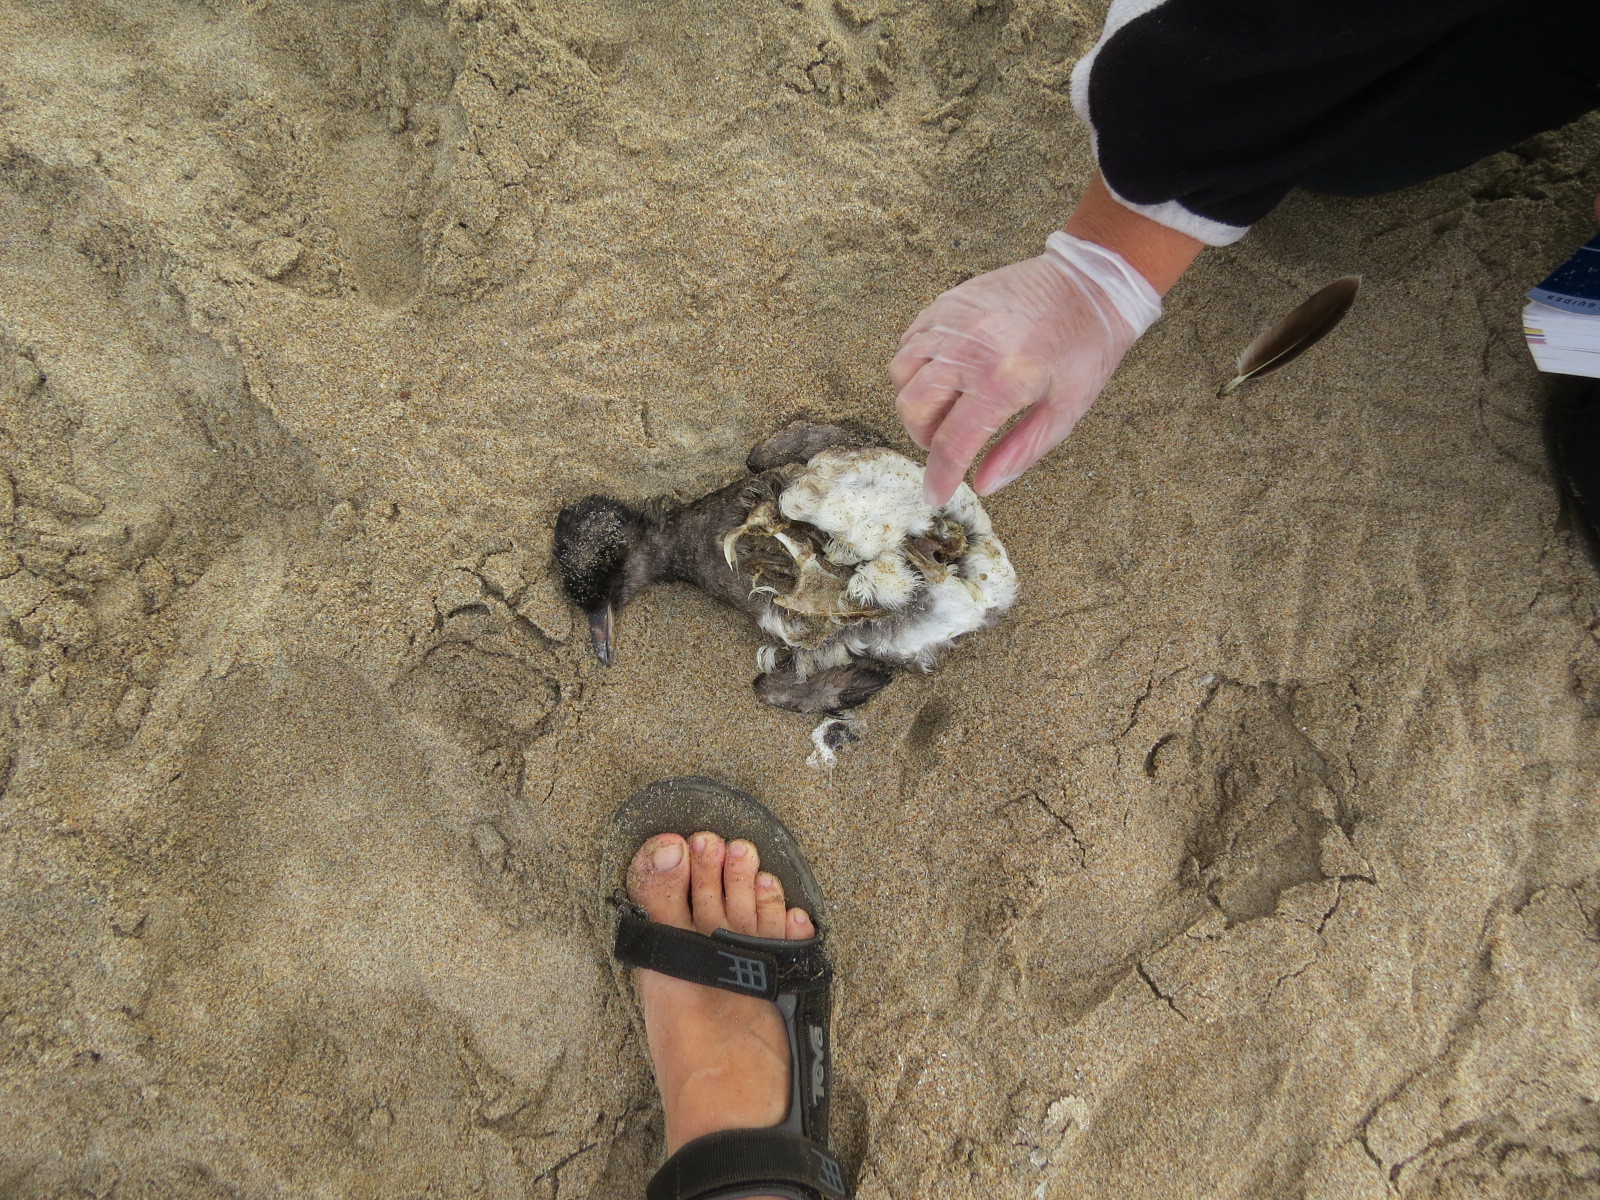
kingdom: Animalia
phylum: Chordata
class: Aves
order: Charadriiformes
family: Alcidae
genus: Cerorhinca
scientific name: Cerorhinca monocerata
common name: Rhinoceros auklet
